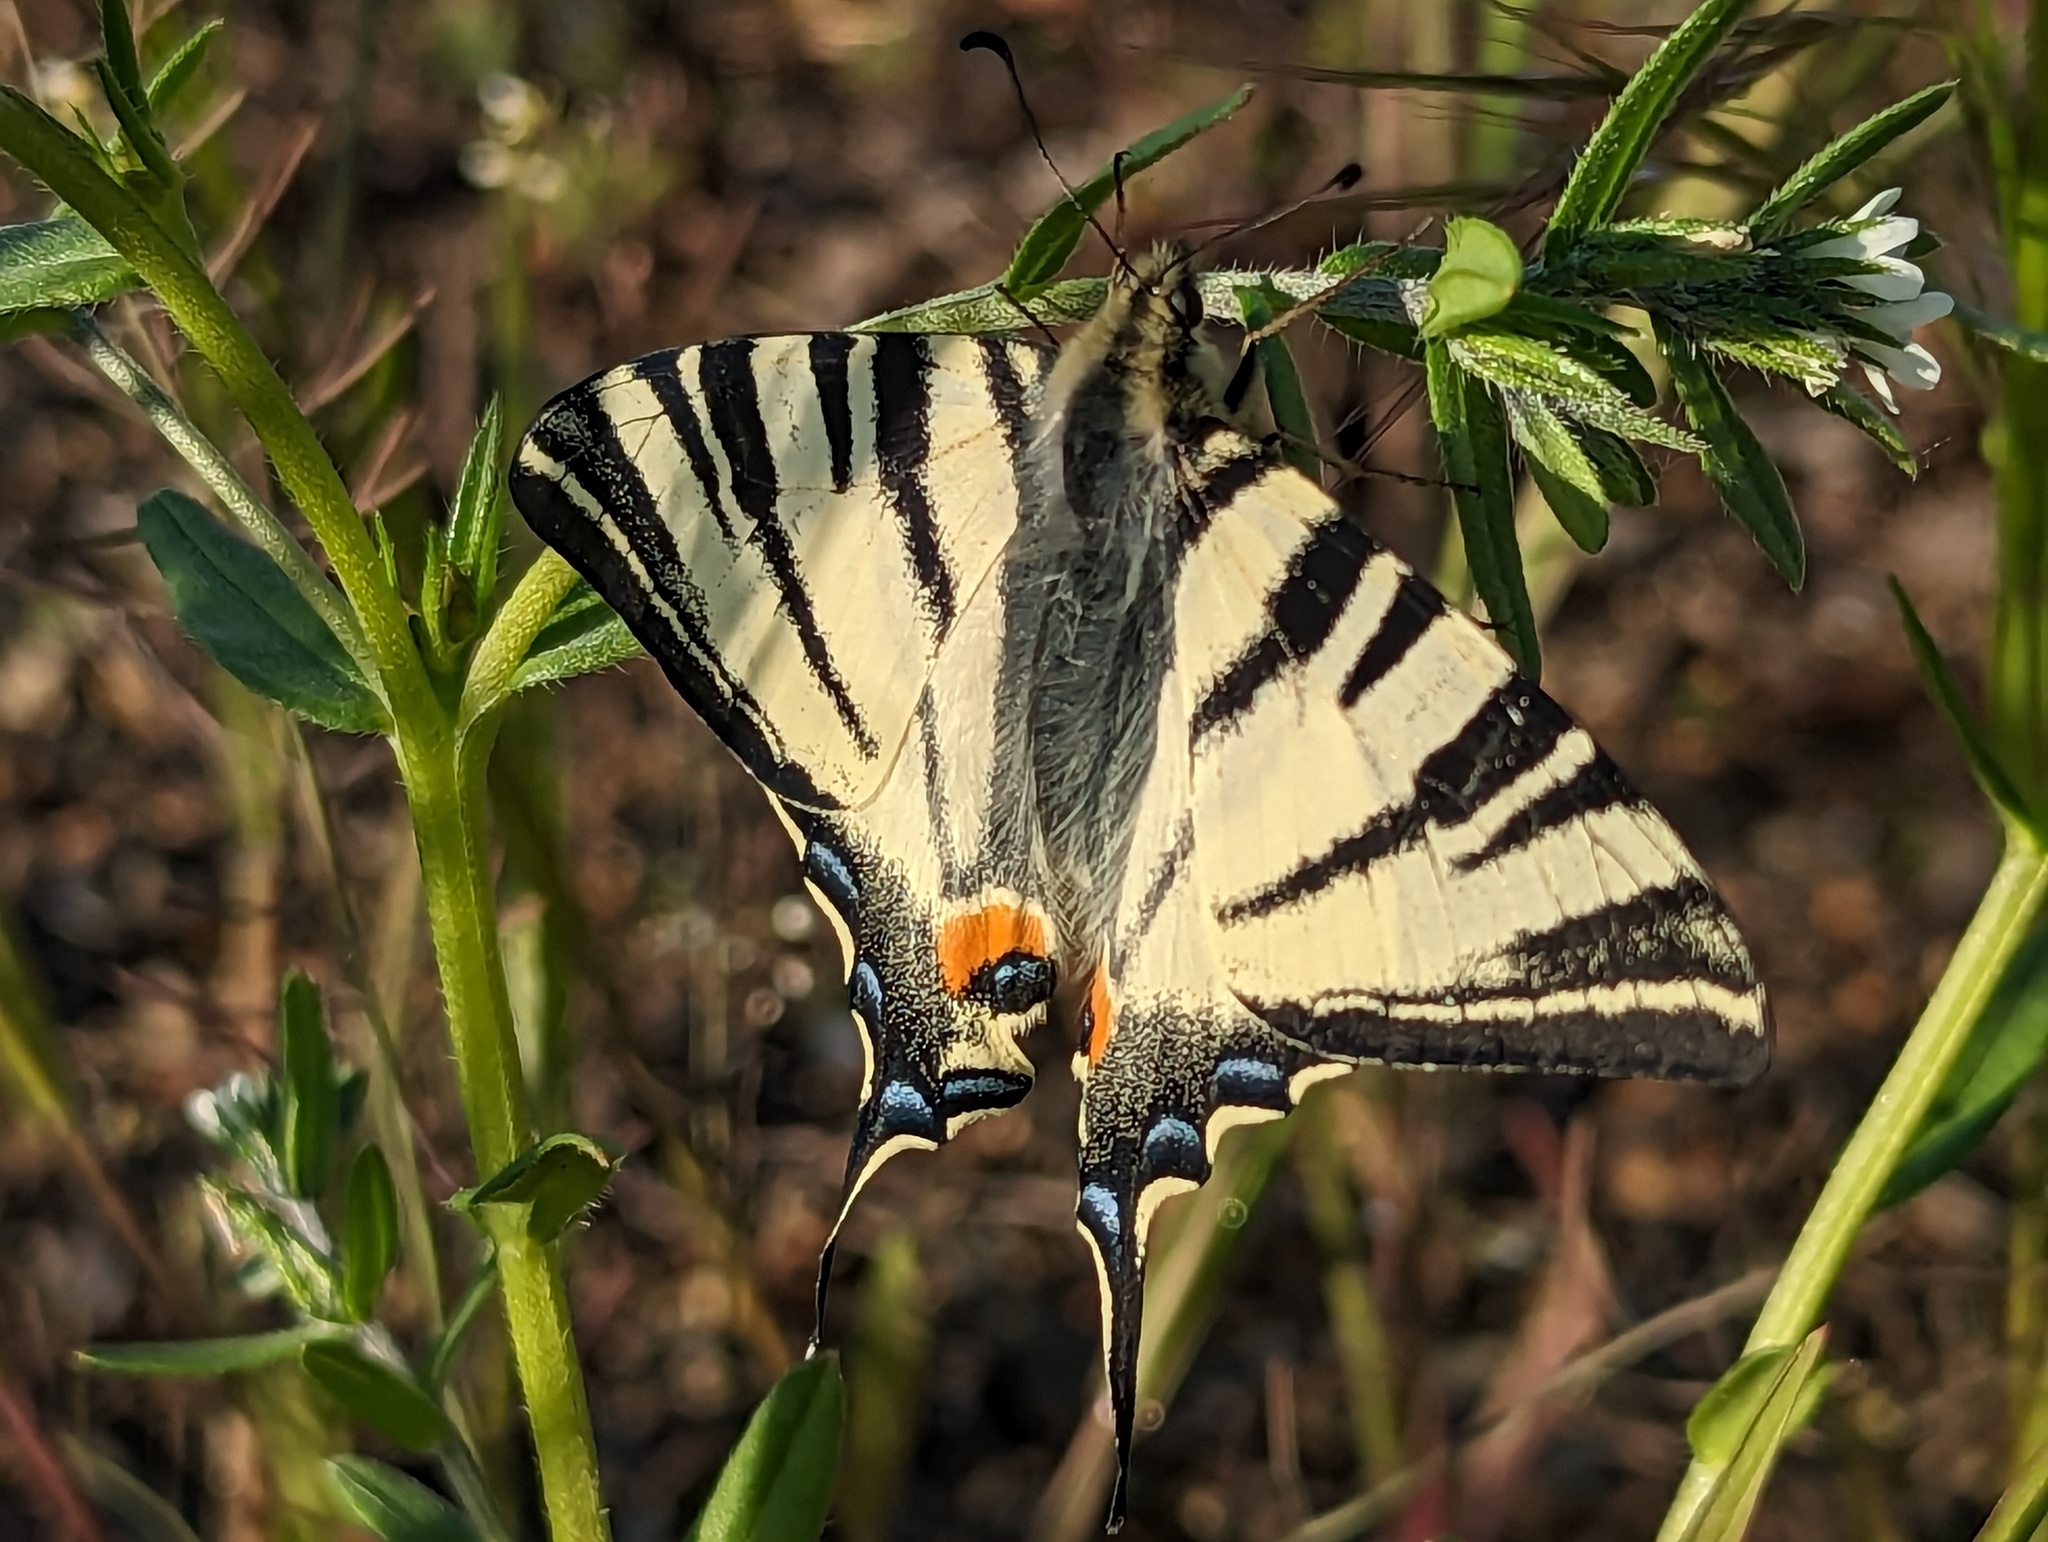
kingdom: Animalia
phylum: Arthropoda
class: Insecta
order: Lepidoptera
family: Papilionidae
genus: Iphiclides
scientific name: Iphiclides podalirius
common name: Scarce swallowtail
